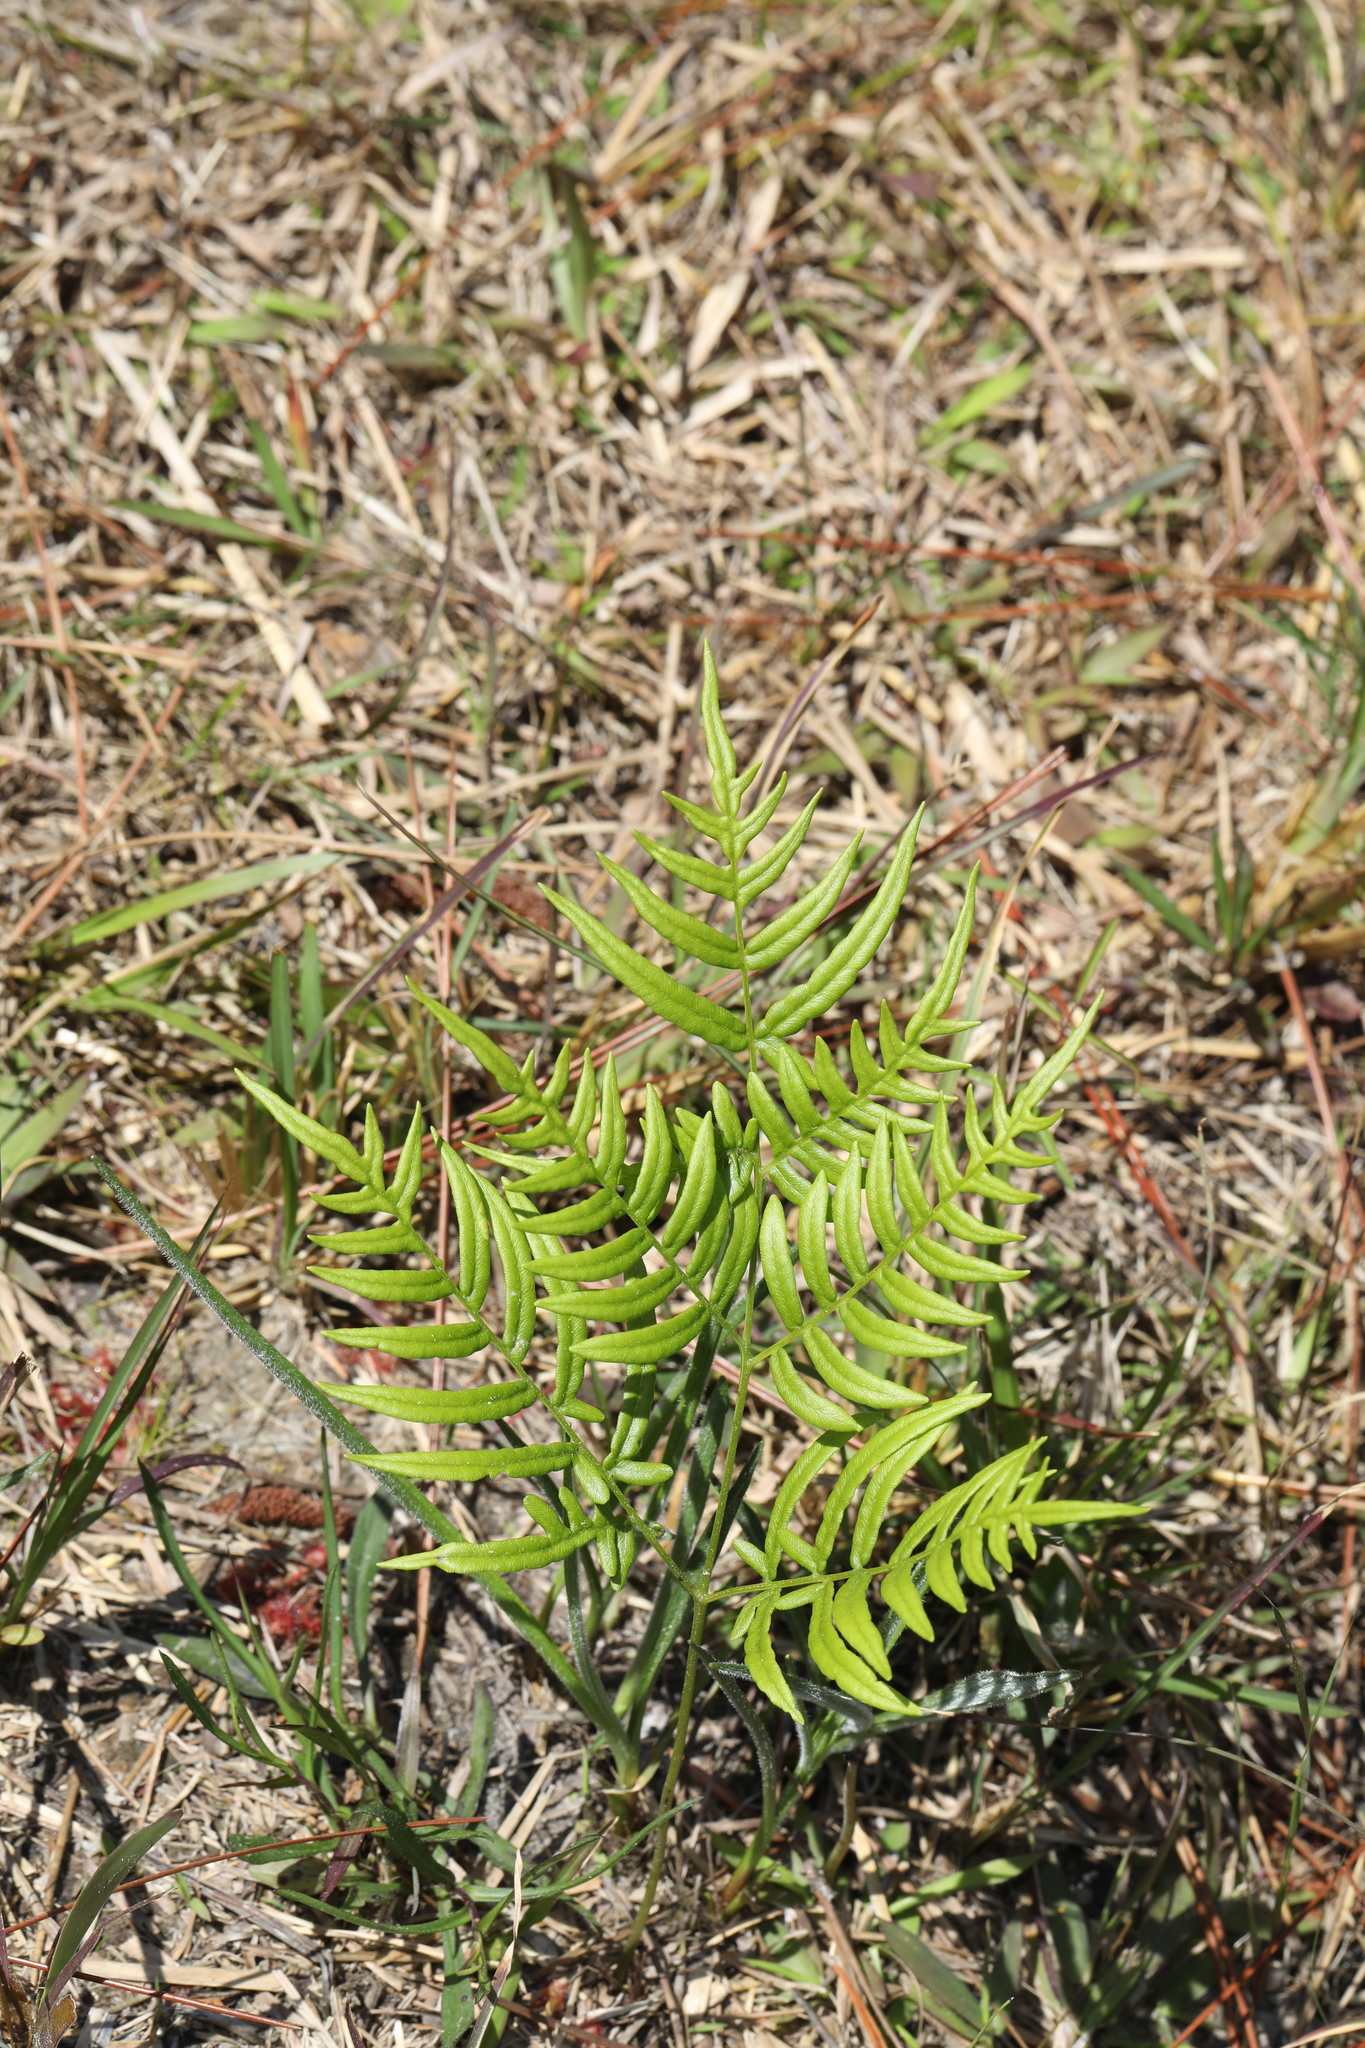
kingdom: Plantae
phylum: Tracheophyta
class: Polypodiopsida
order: Polypodiales
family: Dennstaedtiaceae
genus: Pteridium
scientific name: Pteridium aquilinum
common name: Bracken
